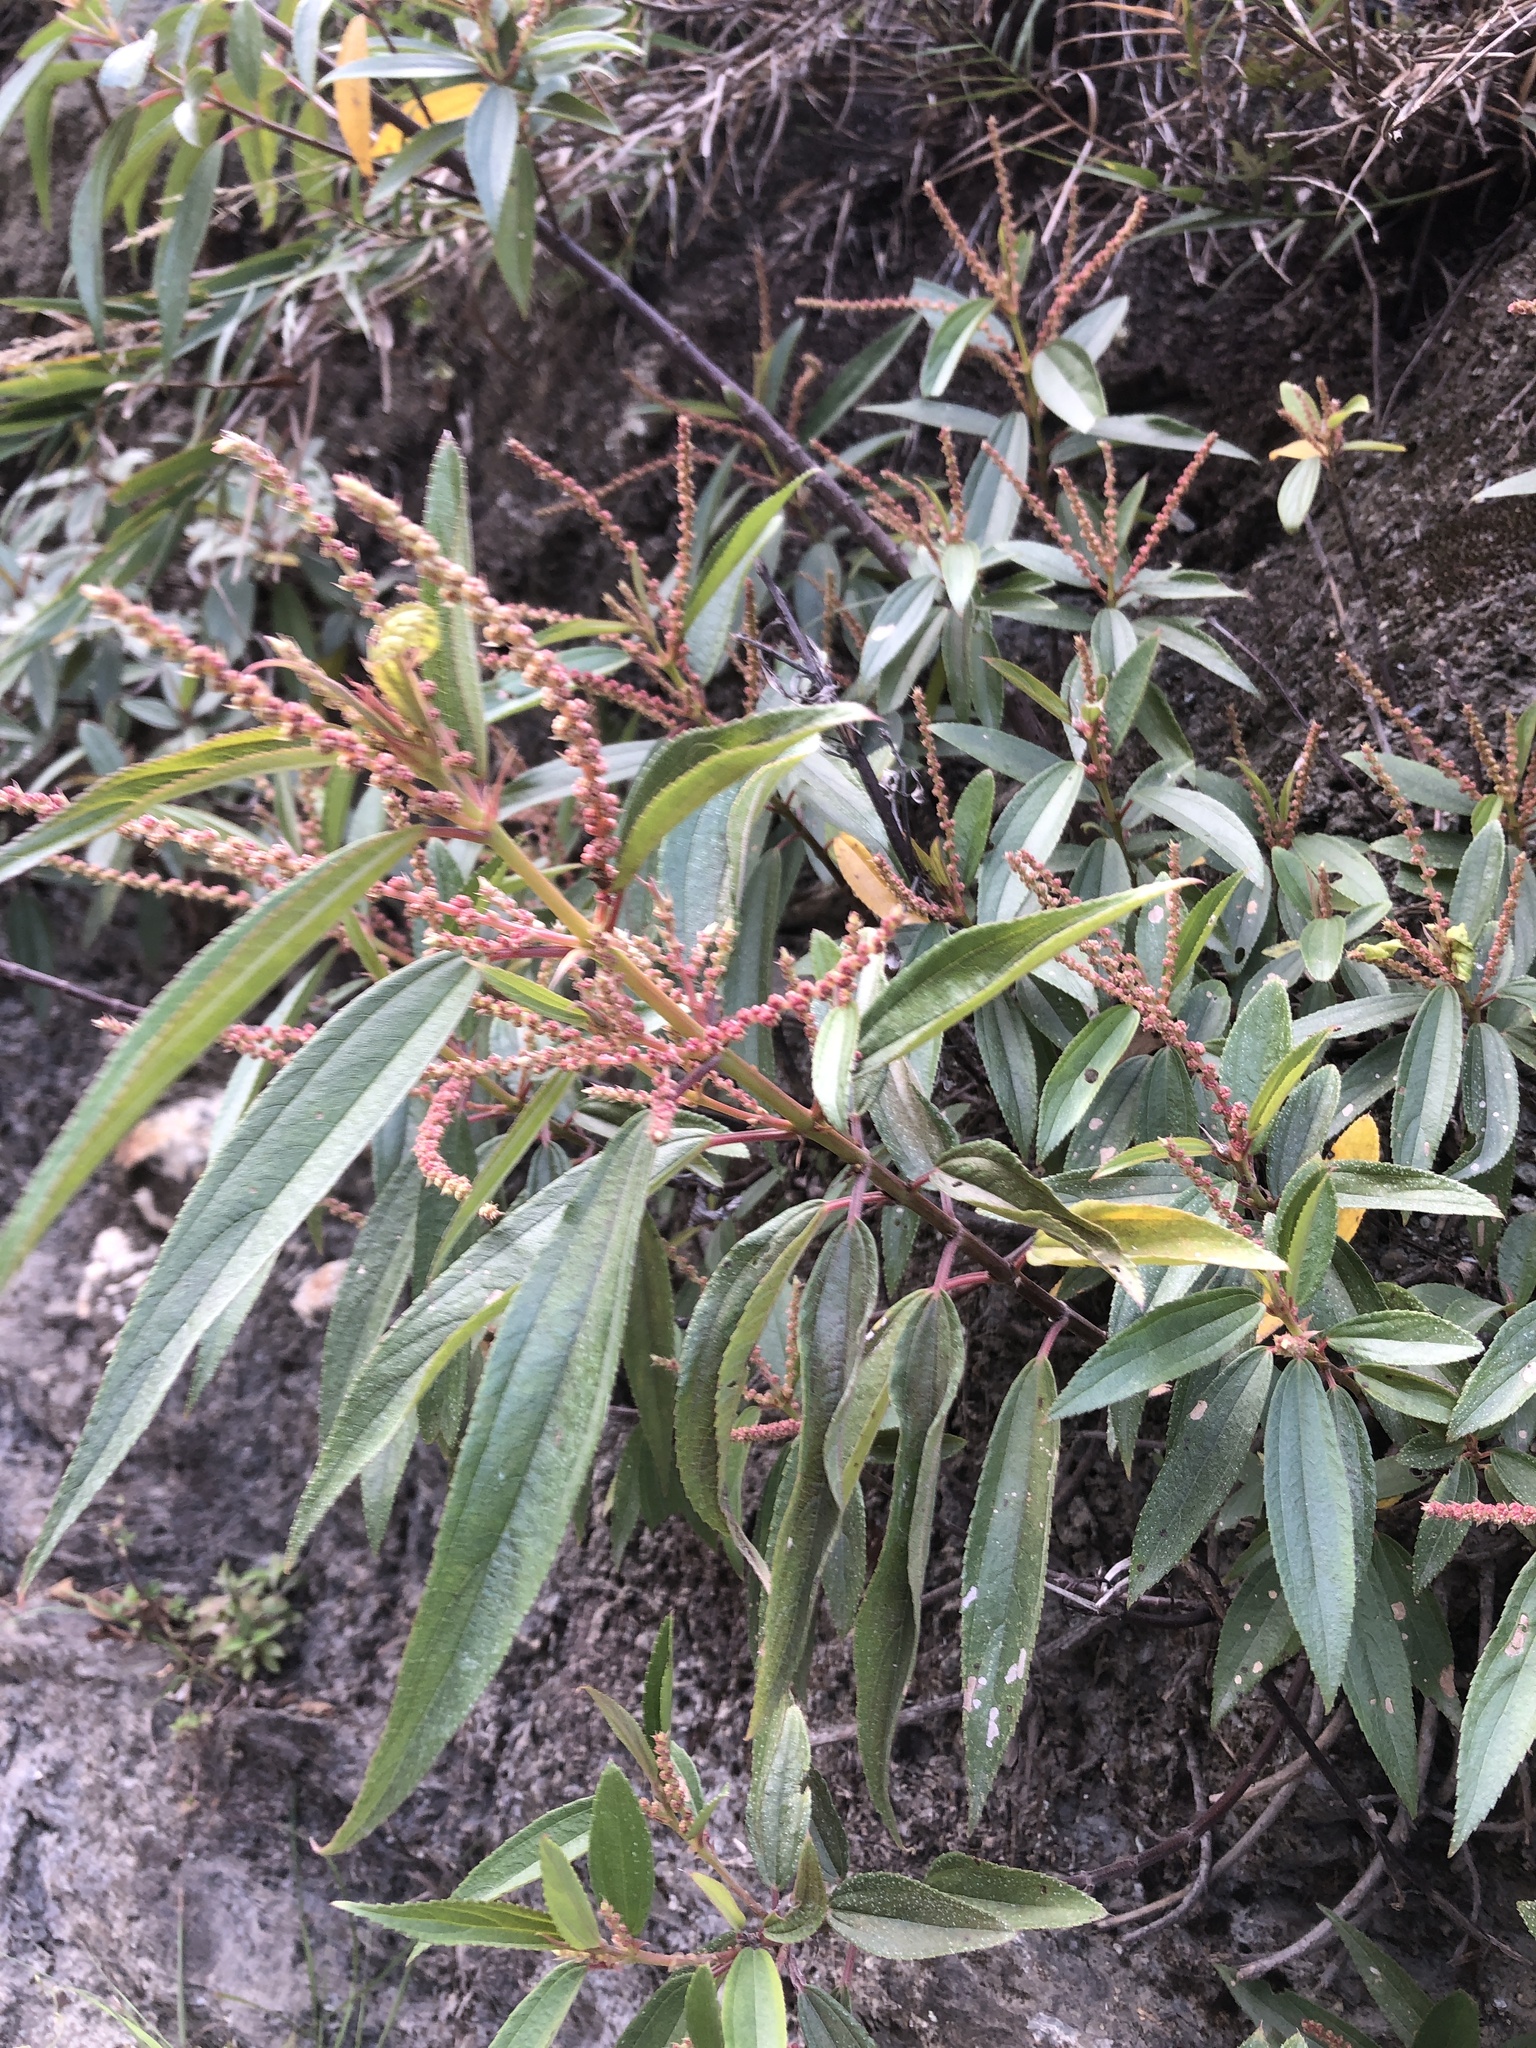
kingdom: Plantae
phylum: Tracheophyta
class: Magnoliopsida
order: Rosales
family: Urticaceae
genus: Boehmeria
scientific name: Boehmeria densiflora
